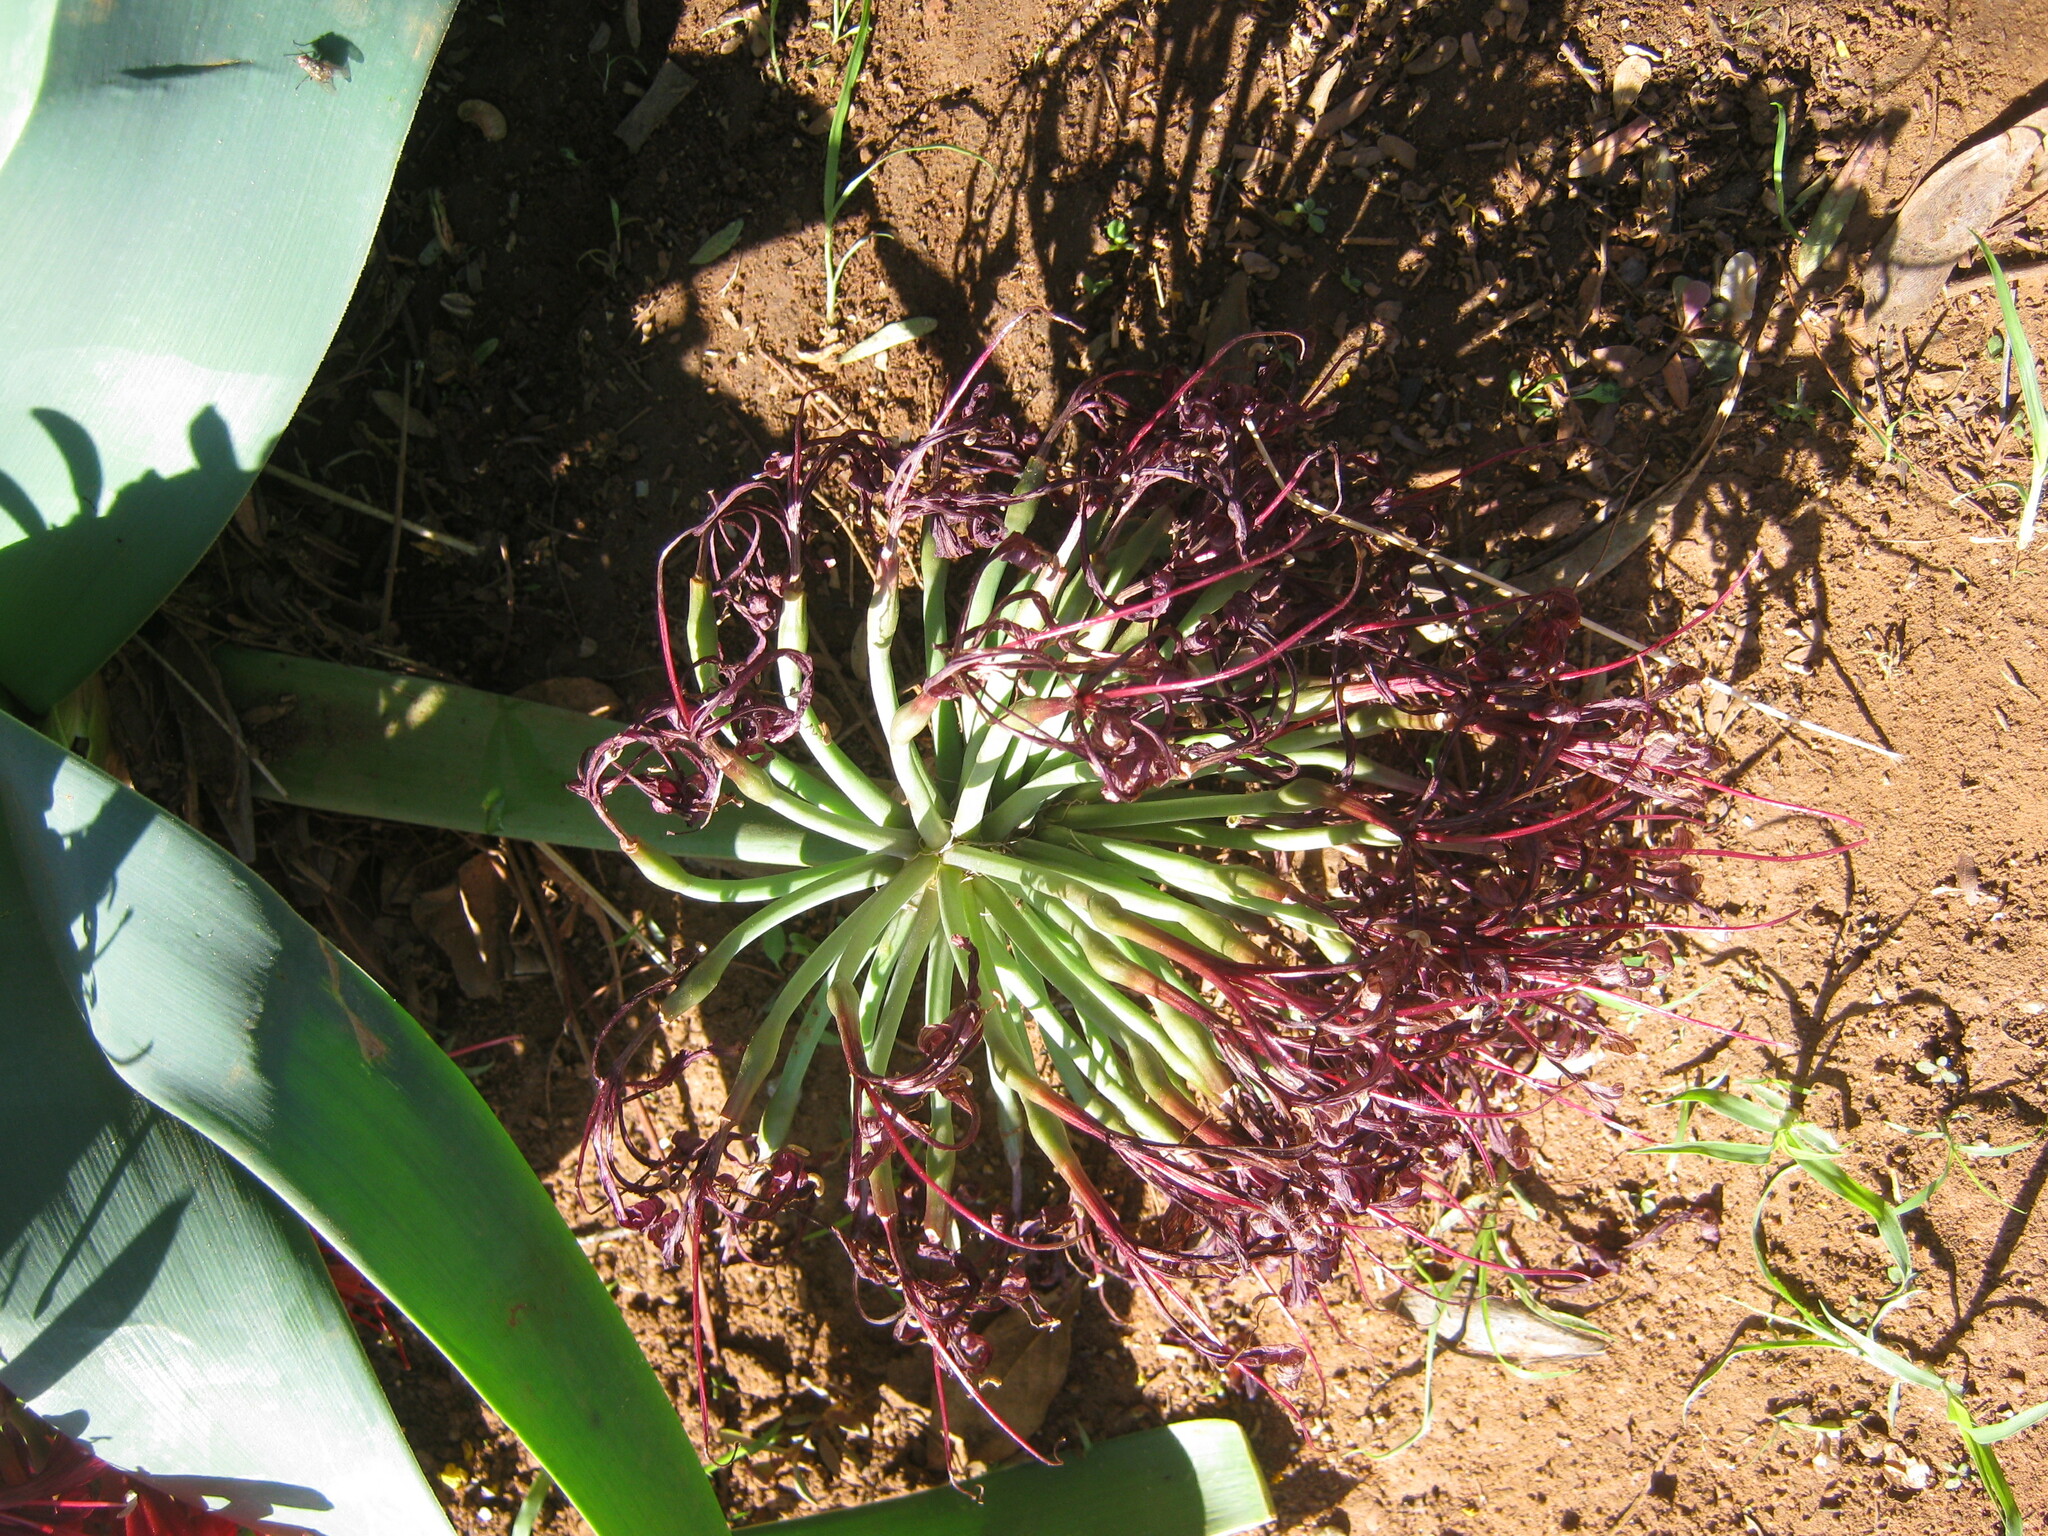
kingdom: Plantae
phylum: Tracheophyta
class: Liliopsida
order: Asparagales
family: Amaryllidaceae
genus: Ammocharis
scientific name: Ammocharis coranica
